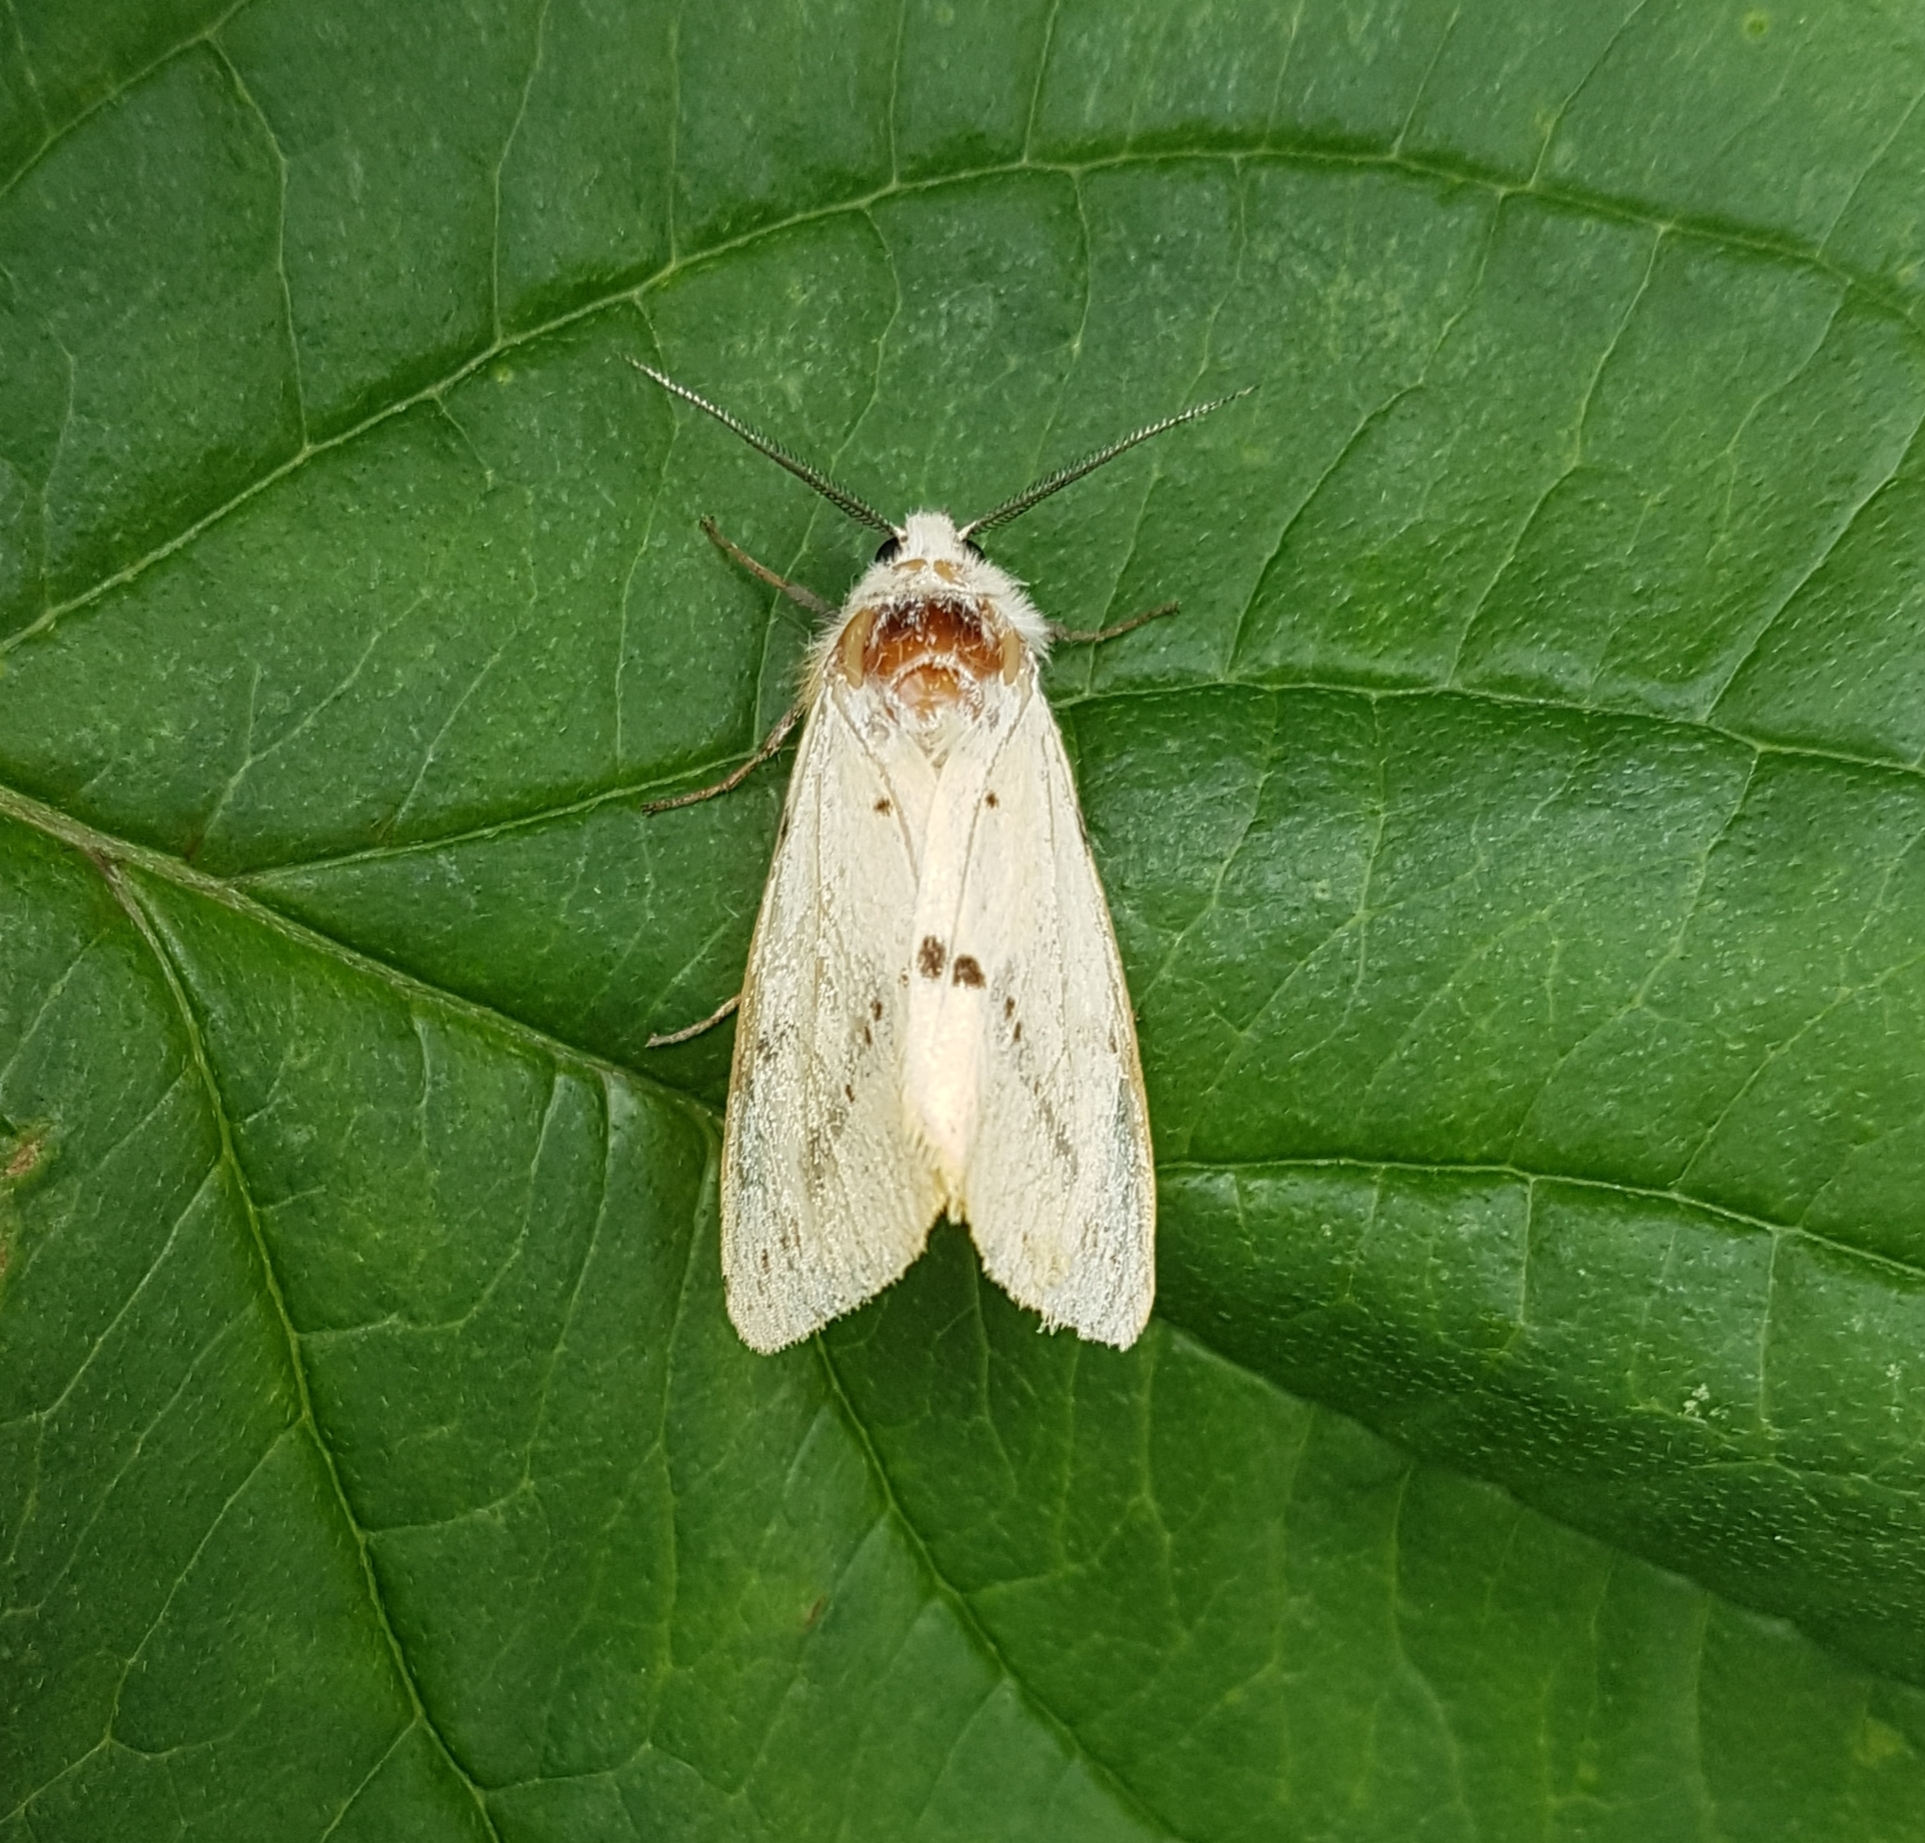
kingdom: Animalia
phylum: Arthropoda
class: Insecta
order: Lepidoptera
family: Erebidae
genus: Spilarctia
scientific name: Spilarctia lutea
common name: Buff ermine
